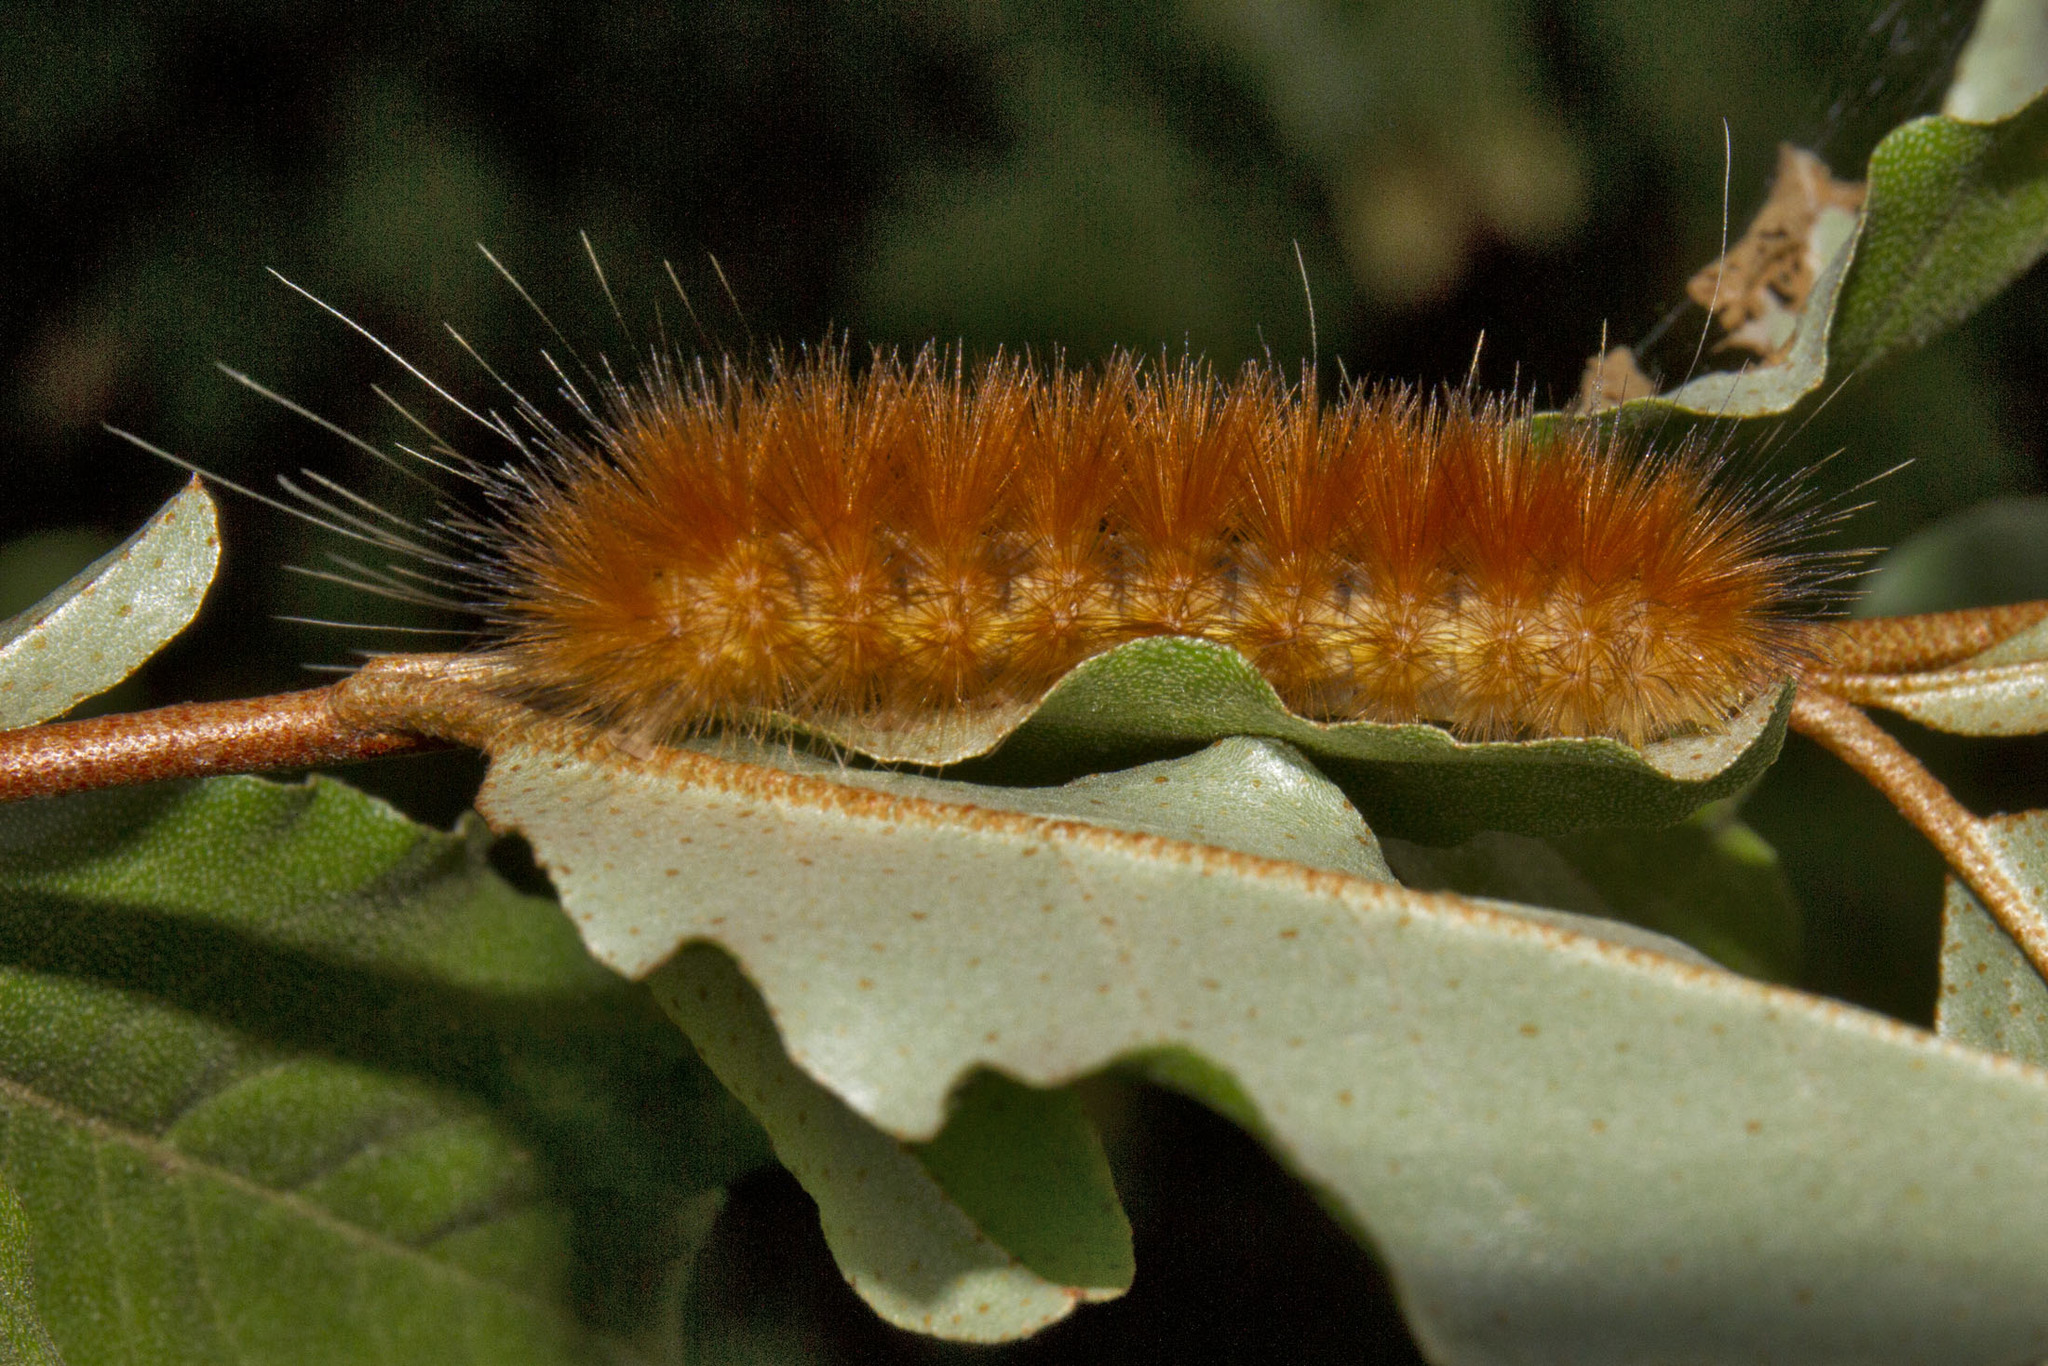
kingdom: Animalia
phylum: Arthropoda
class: Insecta
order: Lepidoptera
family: Erebidae
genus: Spilosoma
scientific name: Spilosoma virginica
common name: Virginia tiger moth
